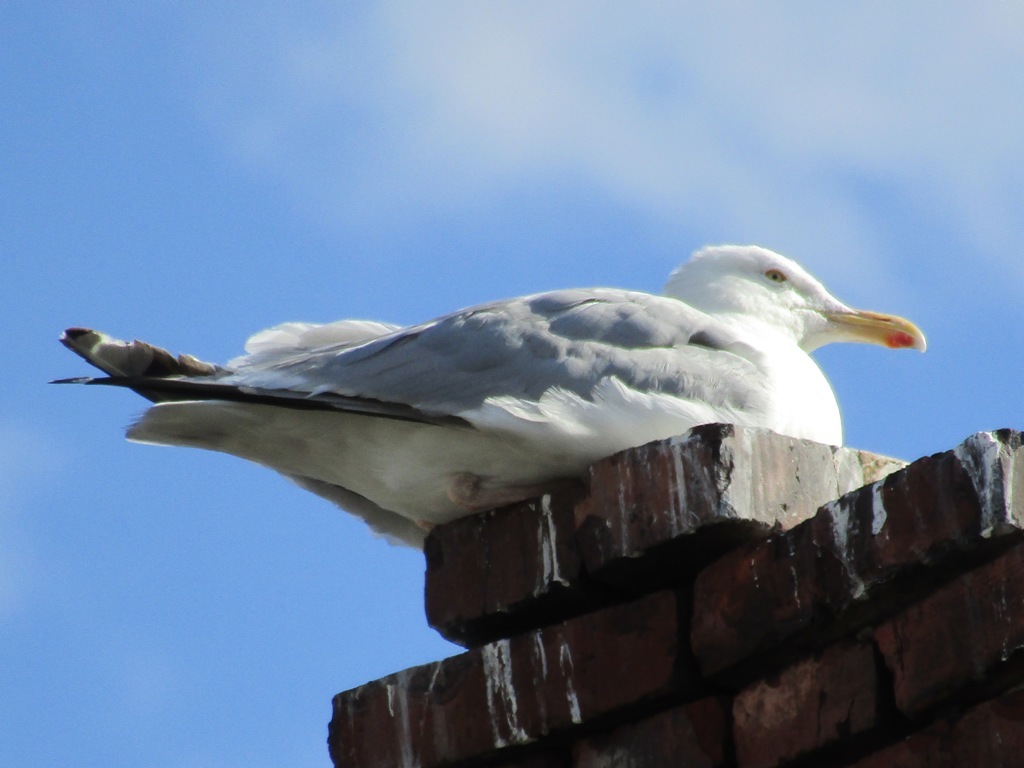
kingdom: Animalia
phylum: Chordata
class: Aves
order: Charadriiformes
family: Laridae
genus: Larus
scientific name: Larus argentatus
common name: Herring gull
